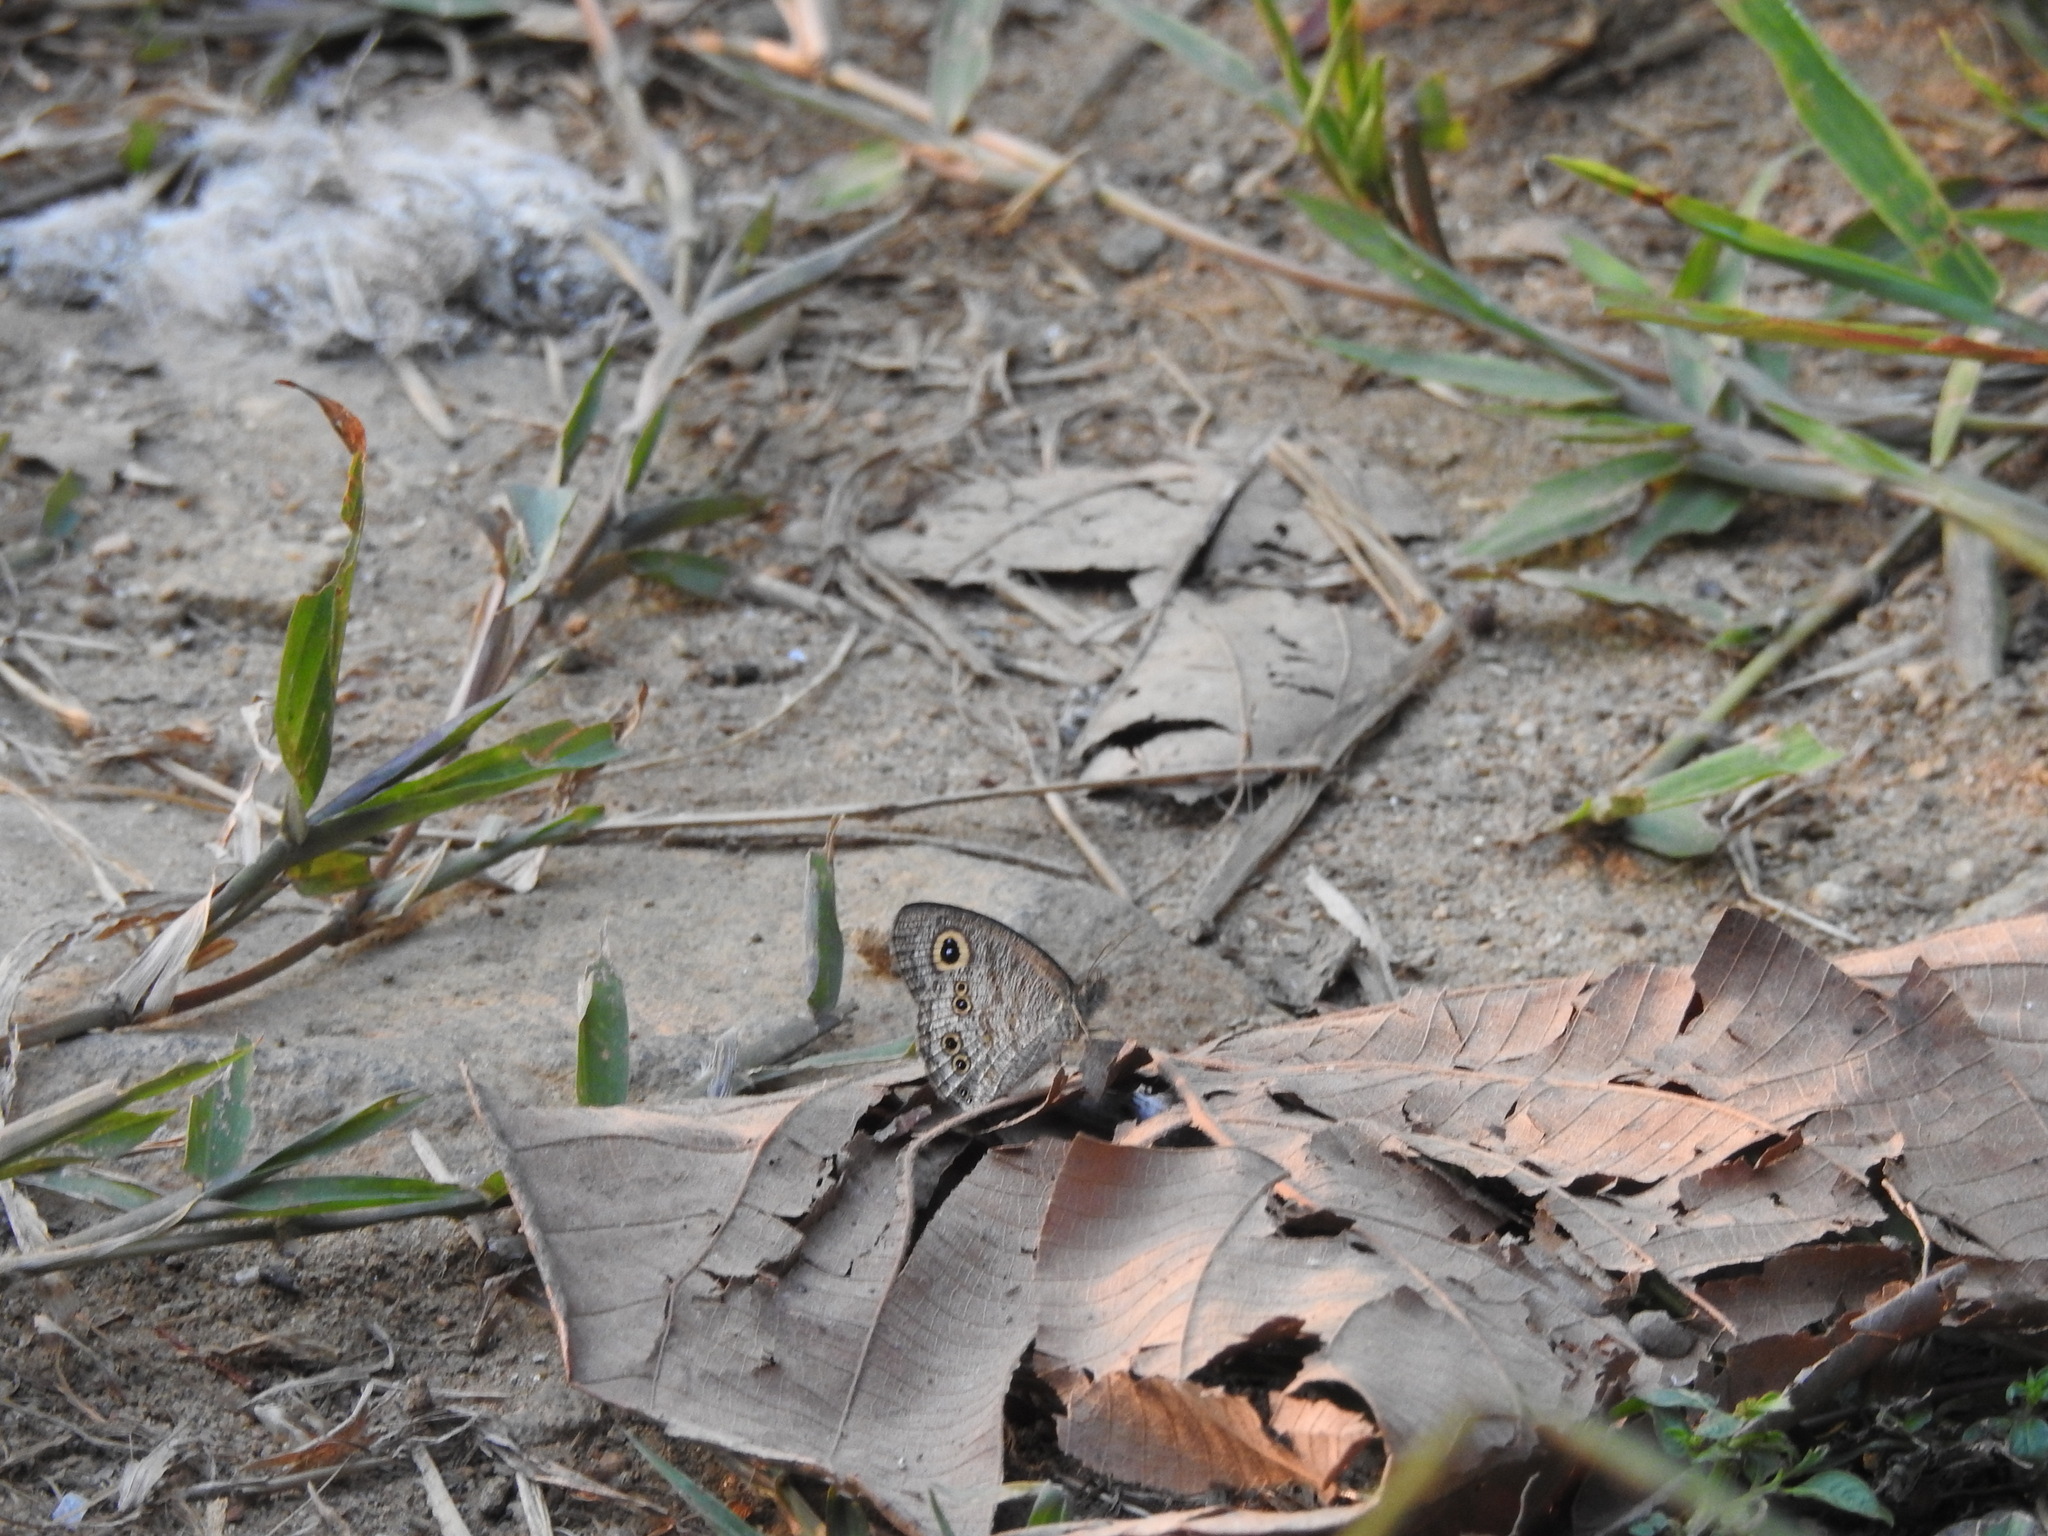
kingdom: Animalia
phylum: Arthropoda
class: Insecta
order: Lepidoptera
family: Nymphalidae
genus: Ypthima
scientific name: Ypthima baldus
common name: Common five-ring
